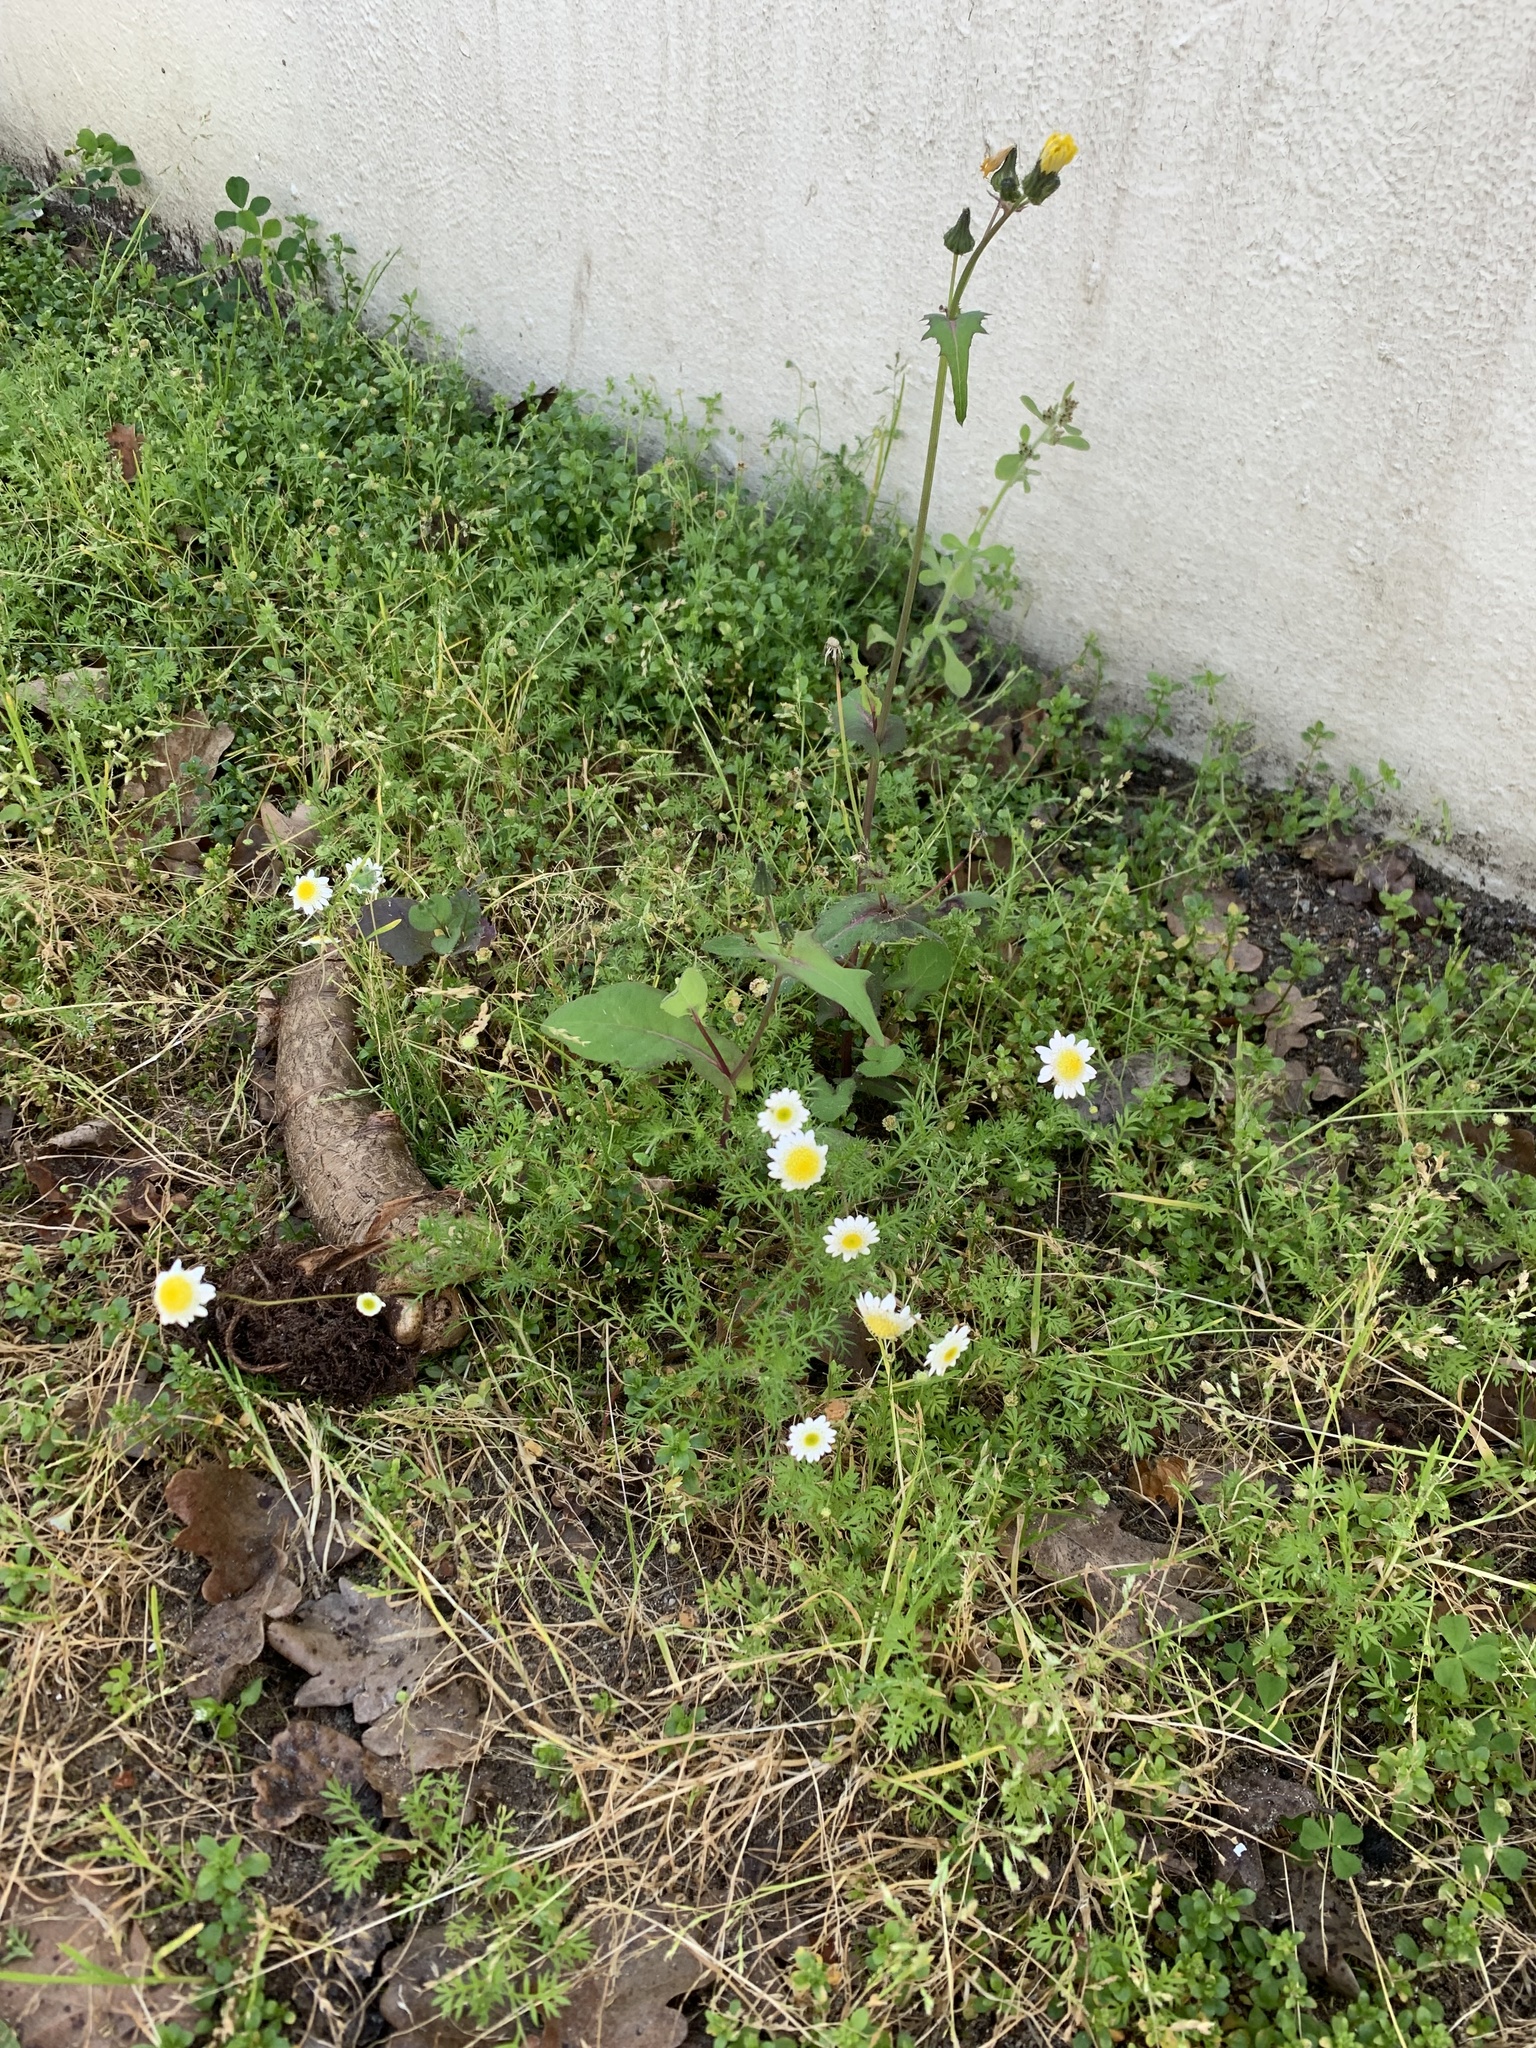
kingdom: Plantae
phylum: Tracheophyta
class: Magnoliopsida
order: Asterales
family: Asteraceae
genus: Cotula
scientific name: Cotula turbinata
